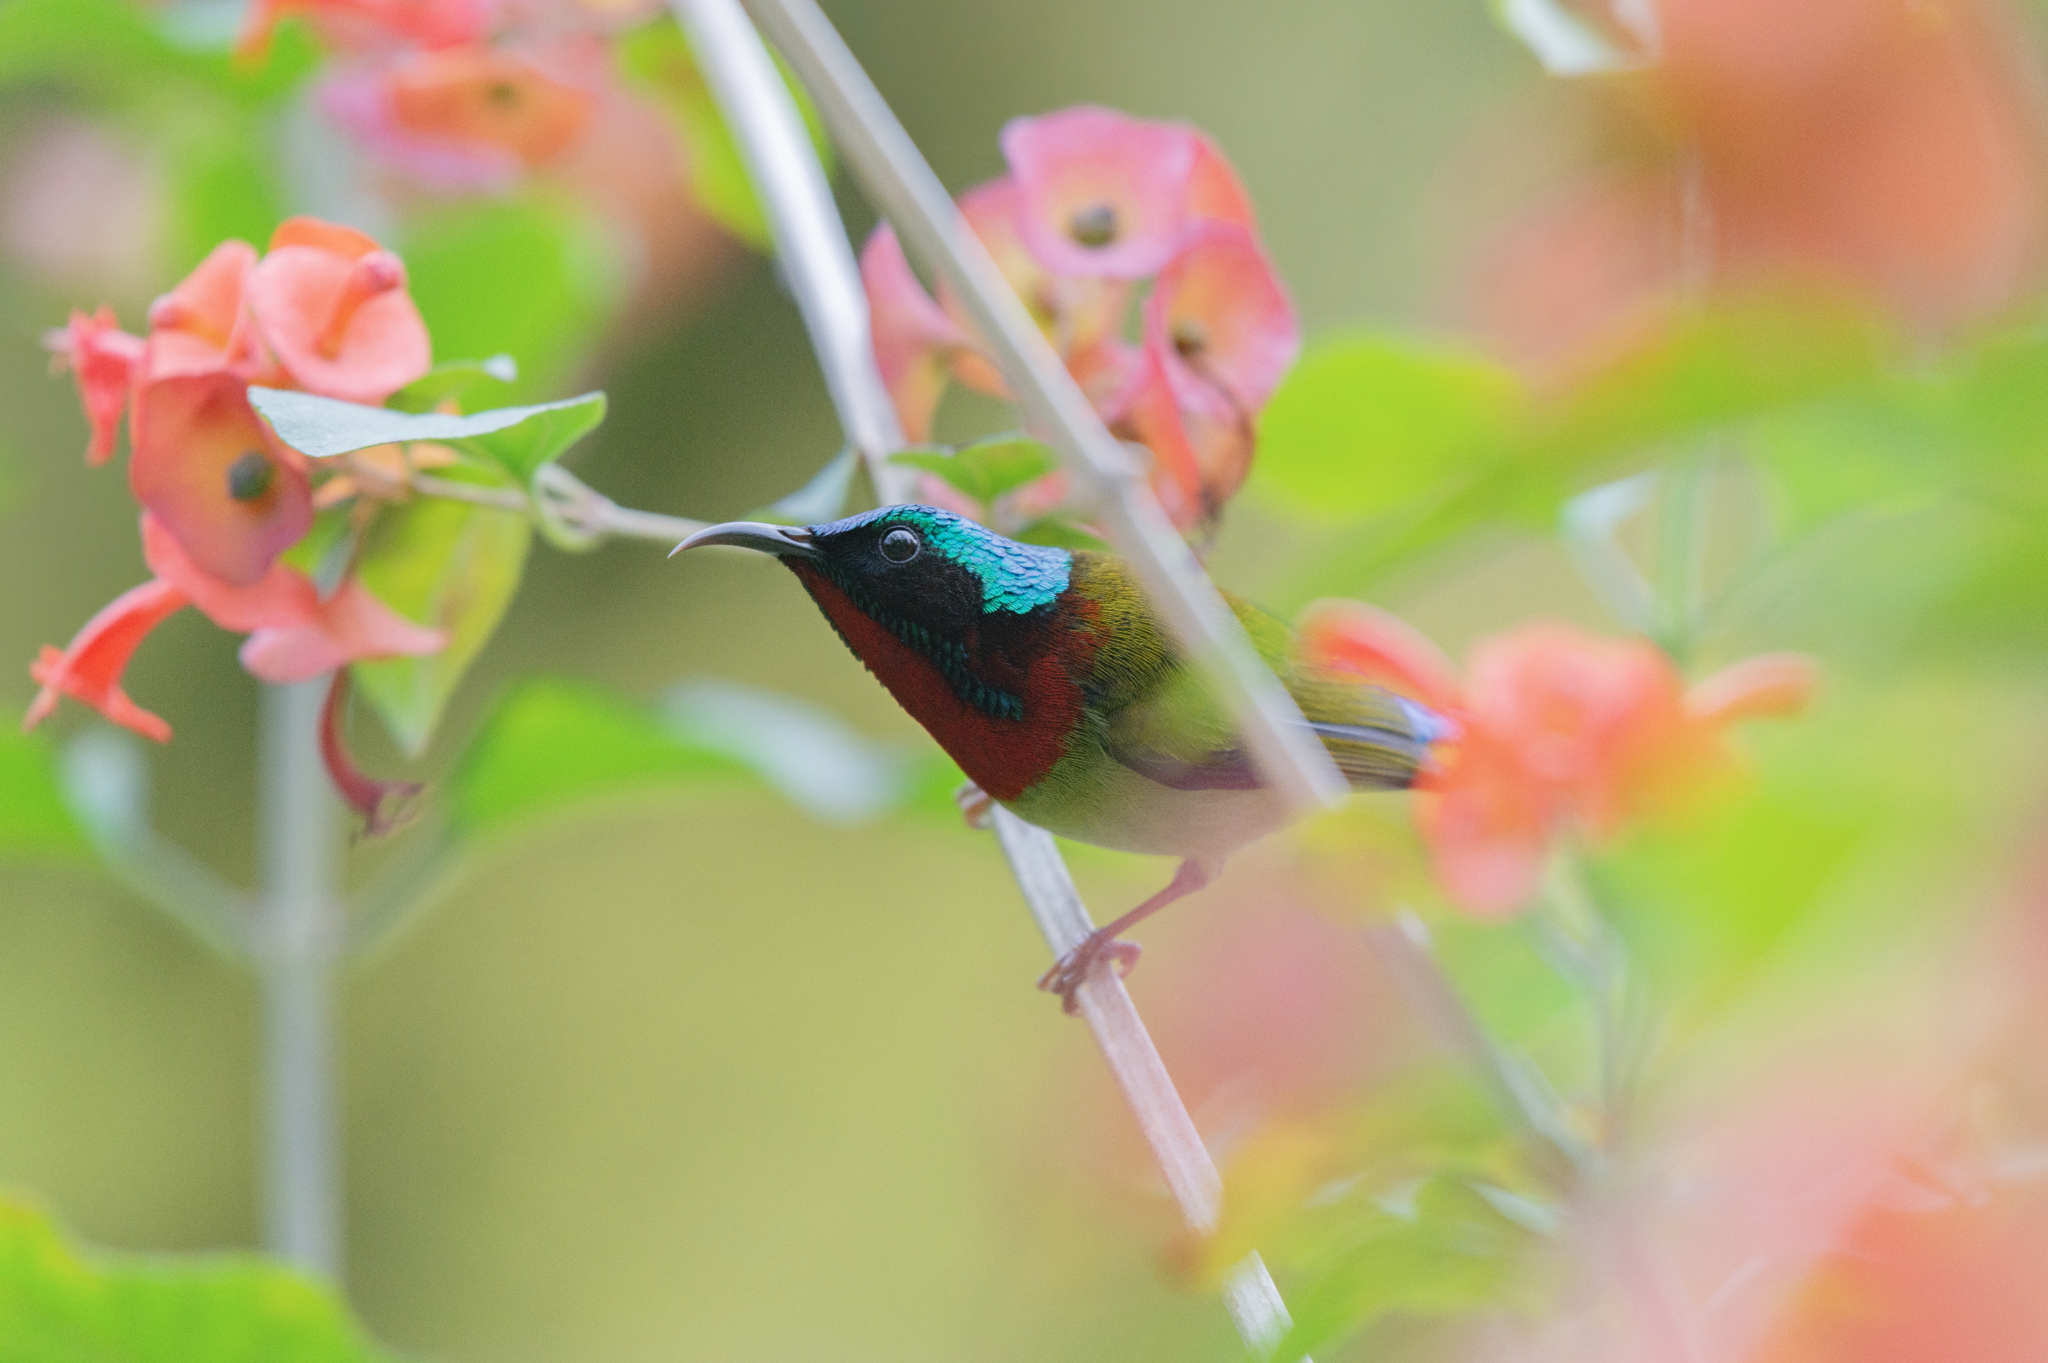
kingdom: Animalia
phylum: Chordata
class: Aves
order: Passeriformes
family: Nectariniidae
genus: Aethopyga
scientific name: Aethopyga christinae
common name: Fork-tailed sunbird
